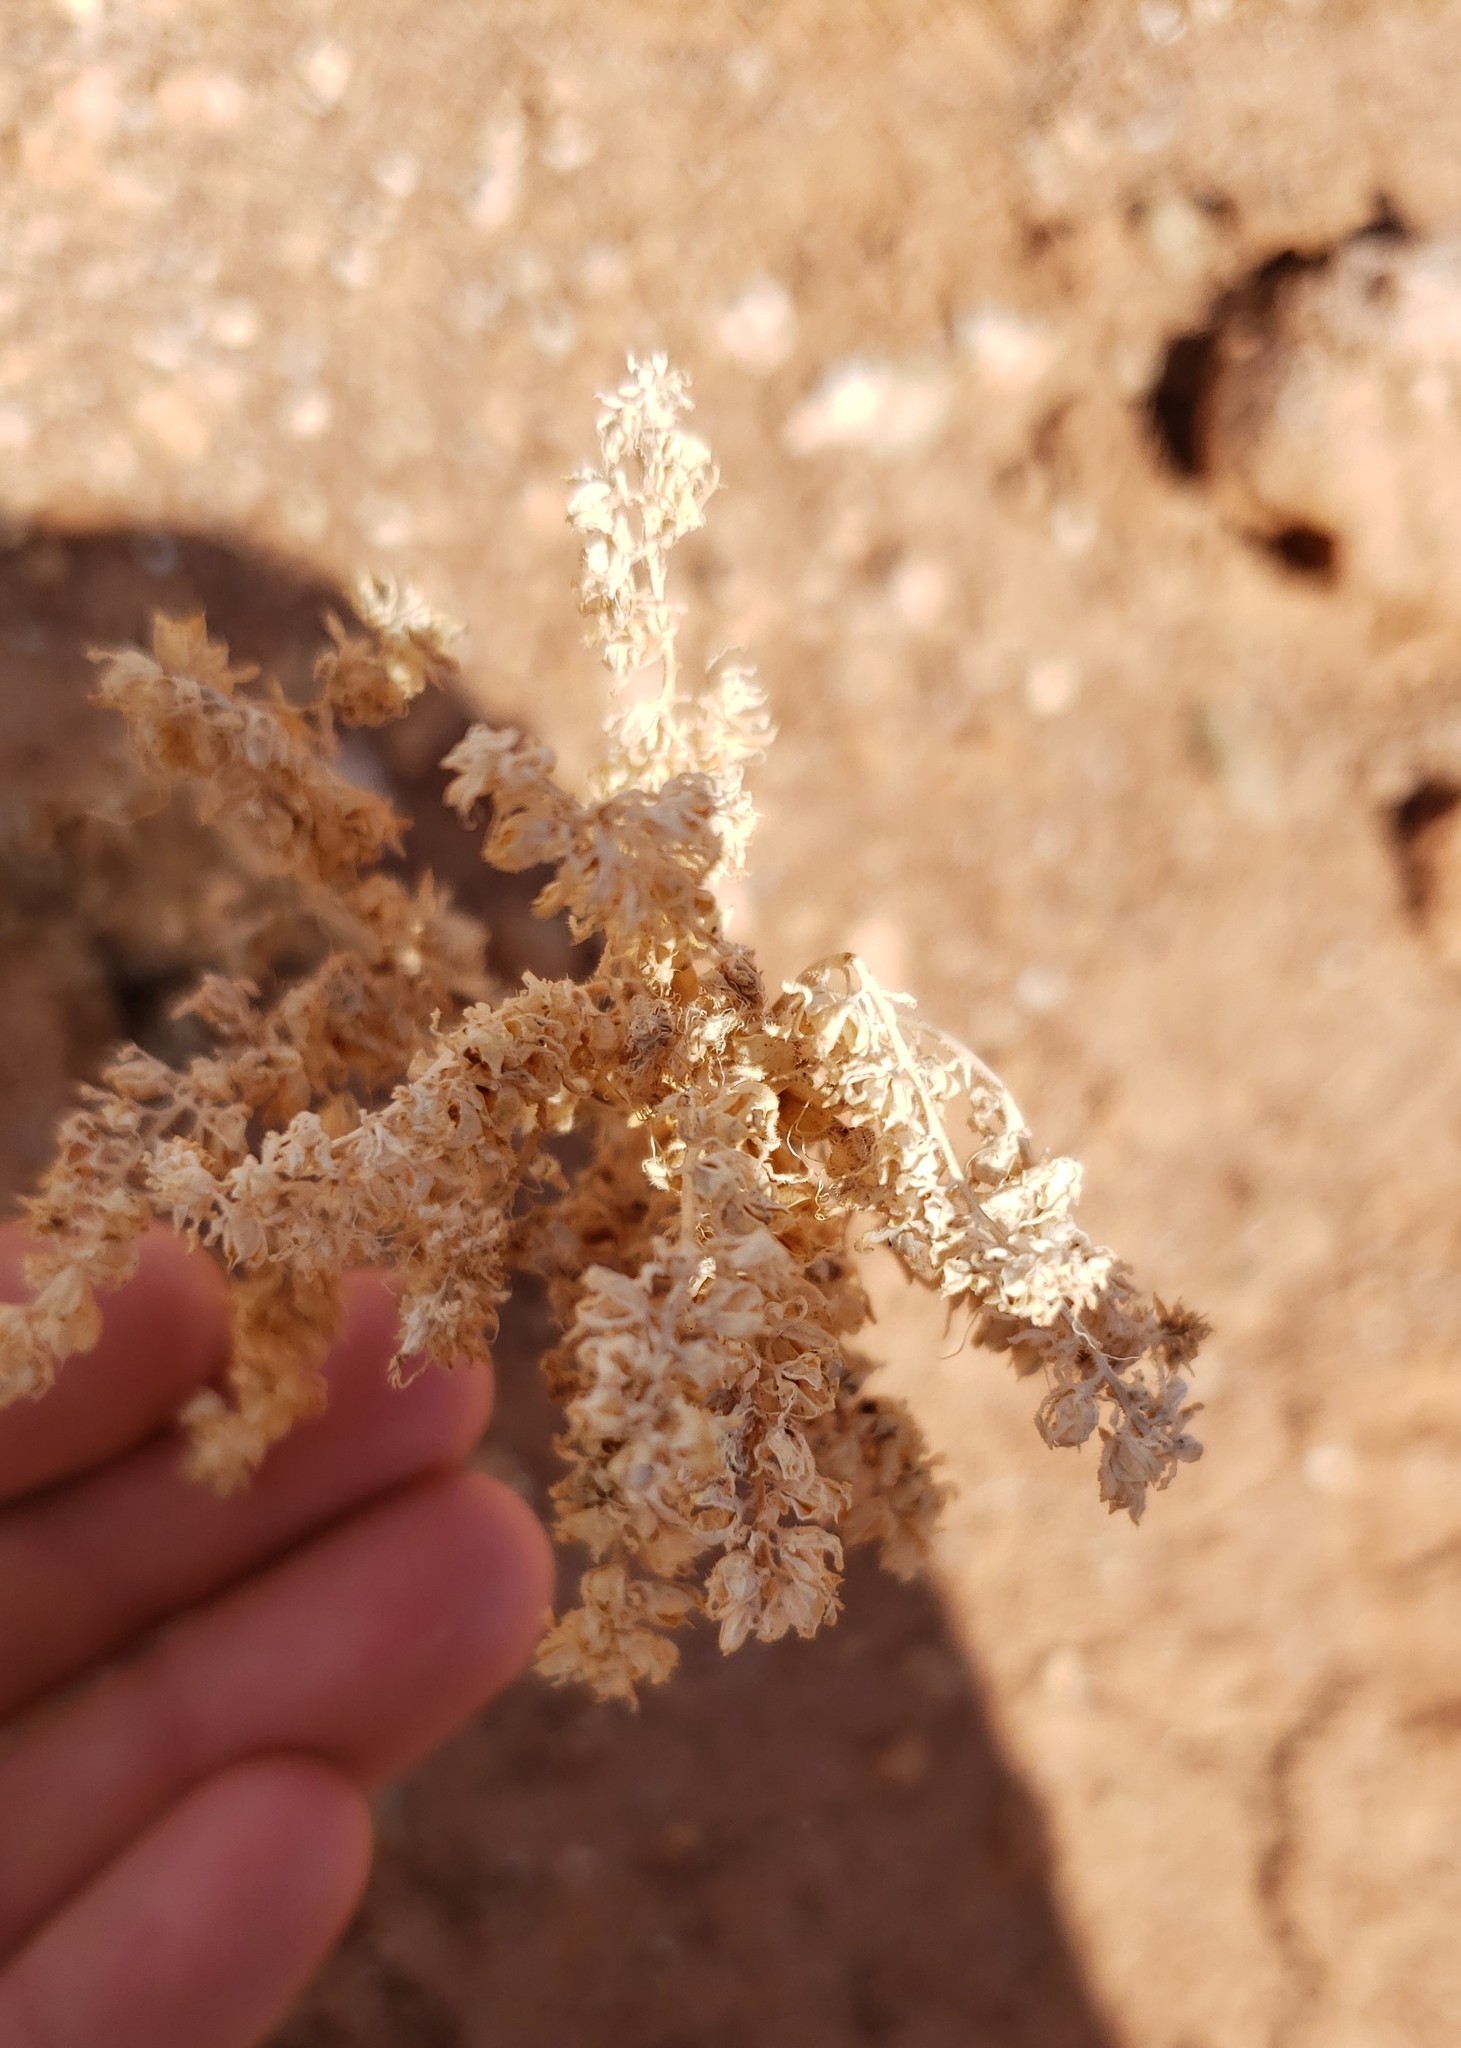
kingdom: Plantae
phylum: Tracheophyta
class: Magnoliopsida
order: Boraginales
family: Hydrophyllaceae
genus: Phacelia
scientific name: Phacelia glandulosa
